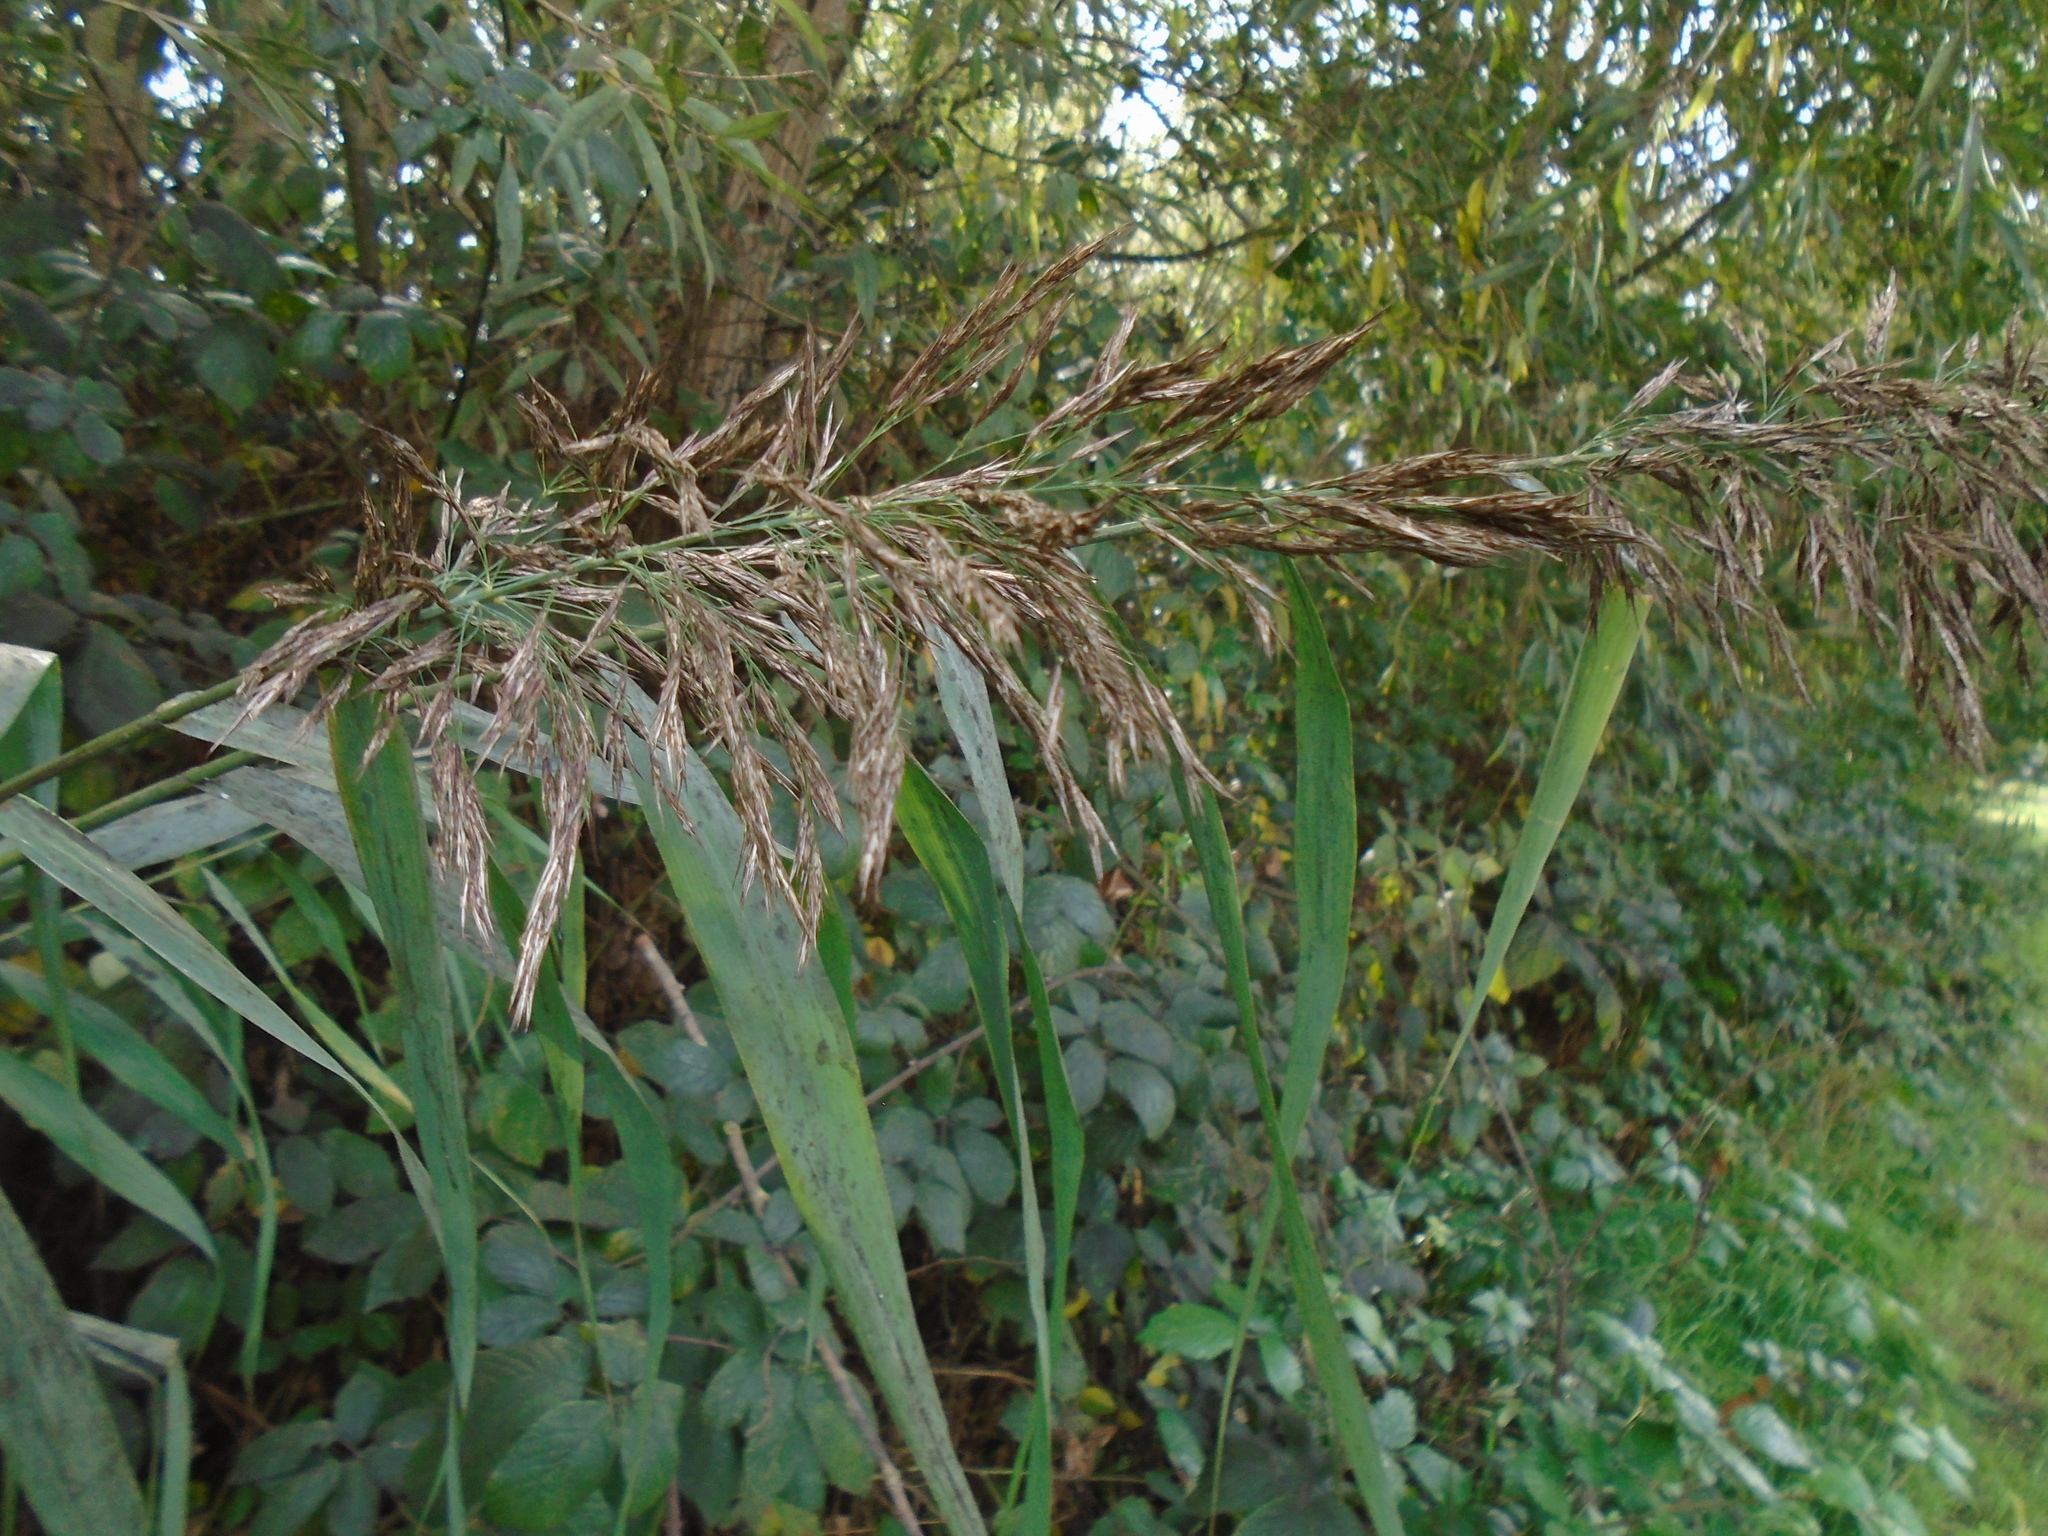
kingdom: Plantae
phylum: Tracheophyta
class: Liliopsida
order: Poales
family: Poaceae
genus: Phragmites
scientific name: Phragmites australis
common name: Common reed
